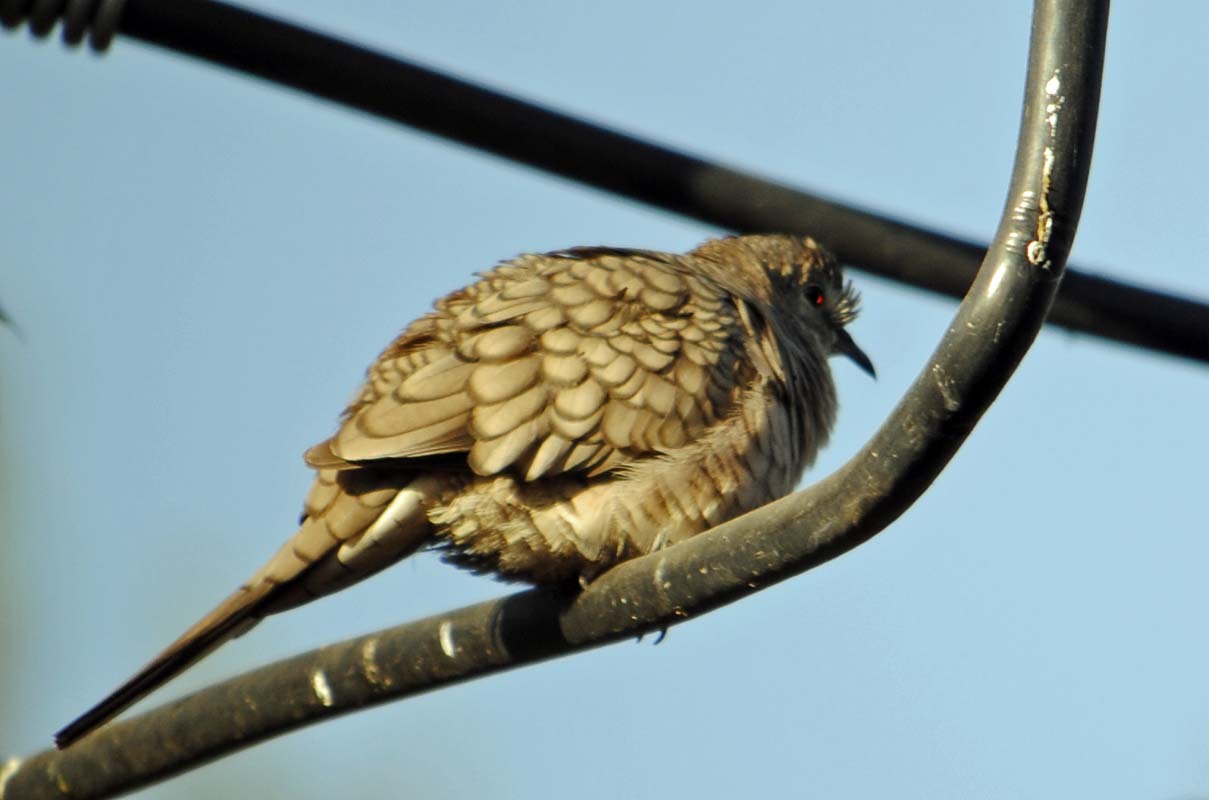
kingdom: Animalia
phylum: Chordata
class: Aves
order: Columbiformes
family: Columbidae
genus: Columbina
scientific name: Columbina inca
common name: Inca dove
